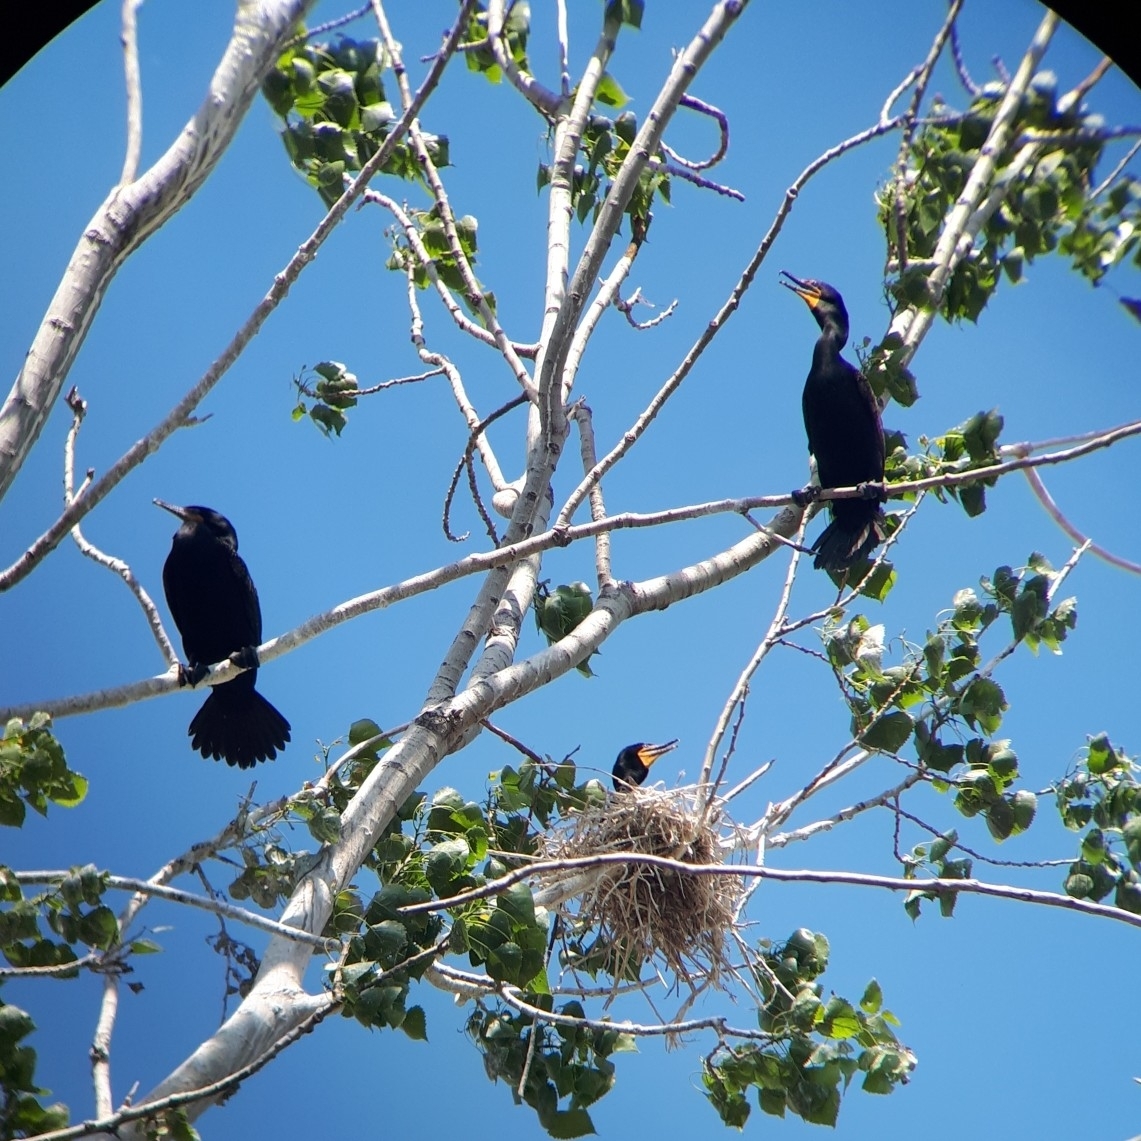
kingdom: Animalia
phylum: Chordata
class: Aves
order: Suliformes
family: Phalacrocoracidae
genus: Phalacrocorax
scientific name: Phalacrocorax auritus
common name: Double-crested cormorant
